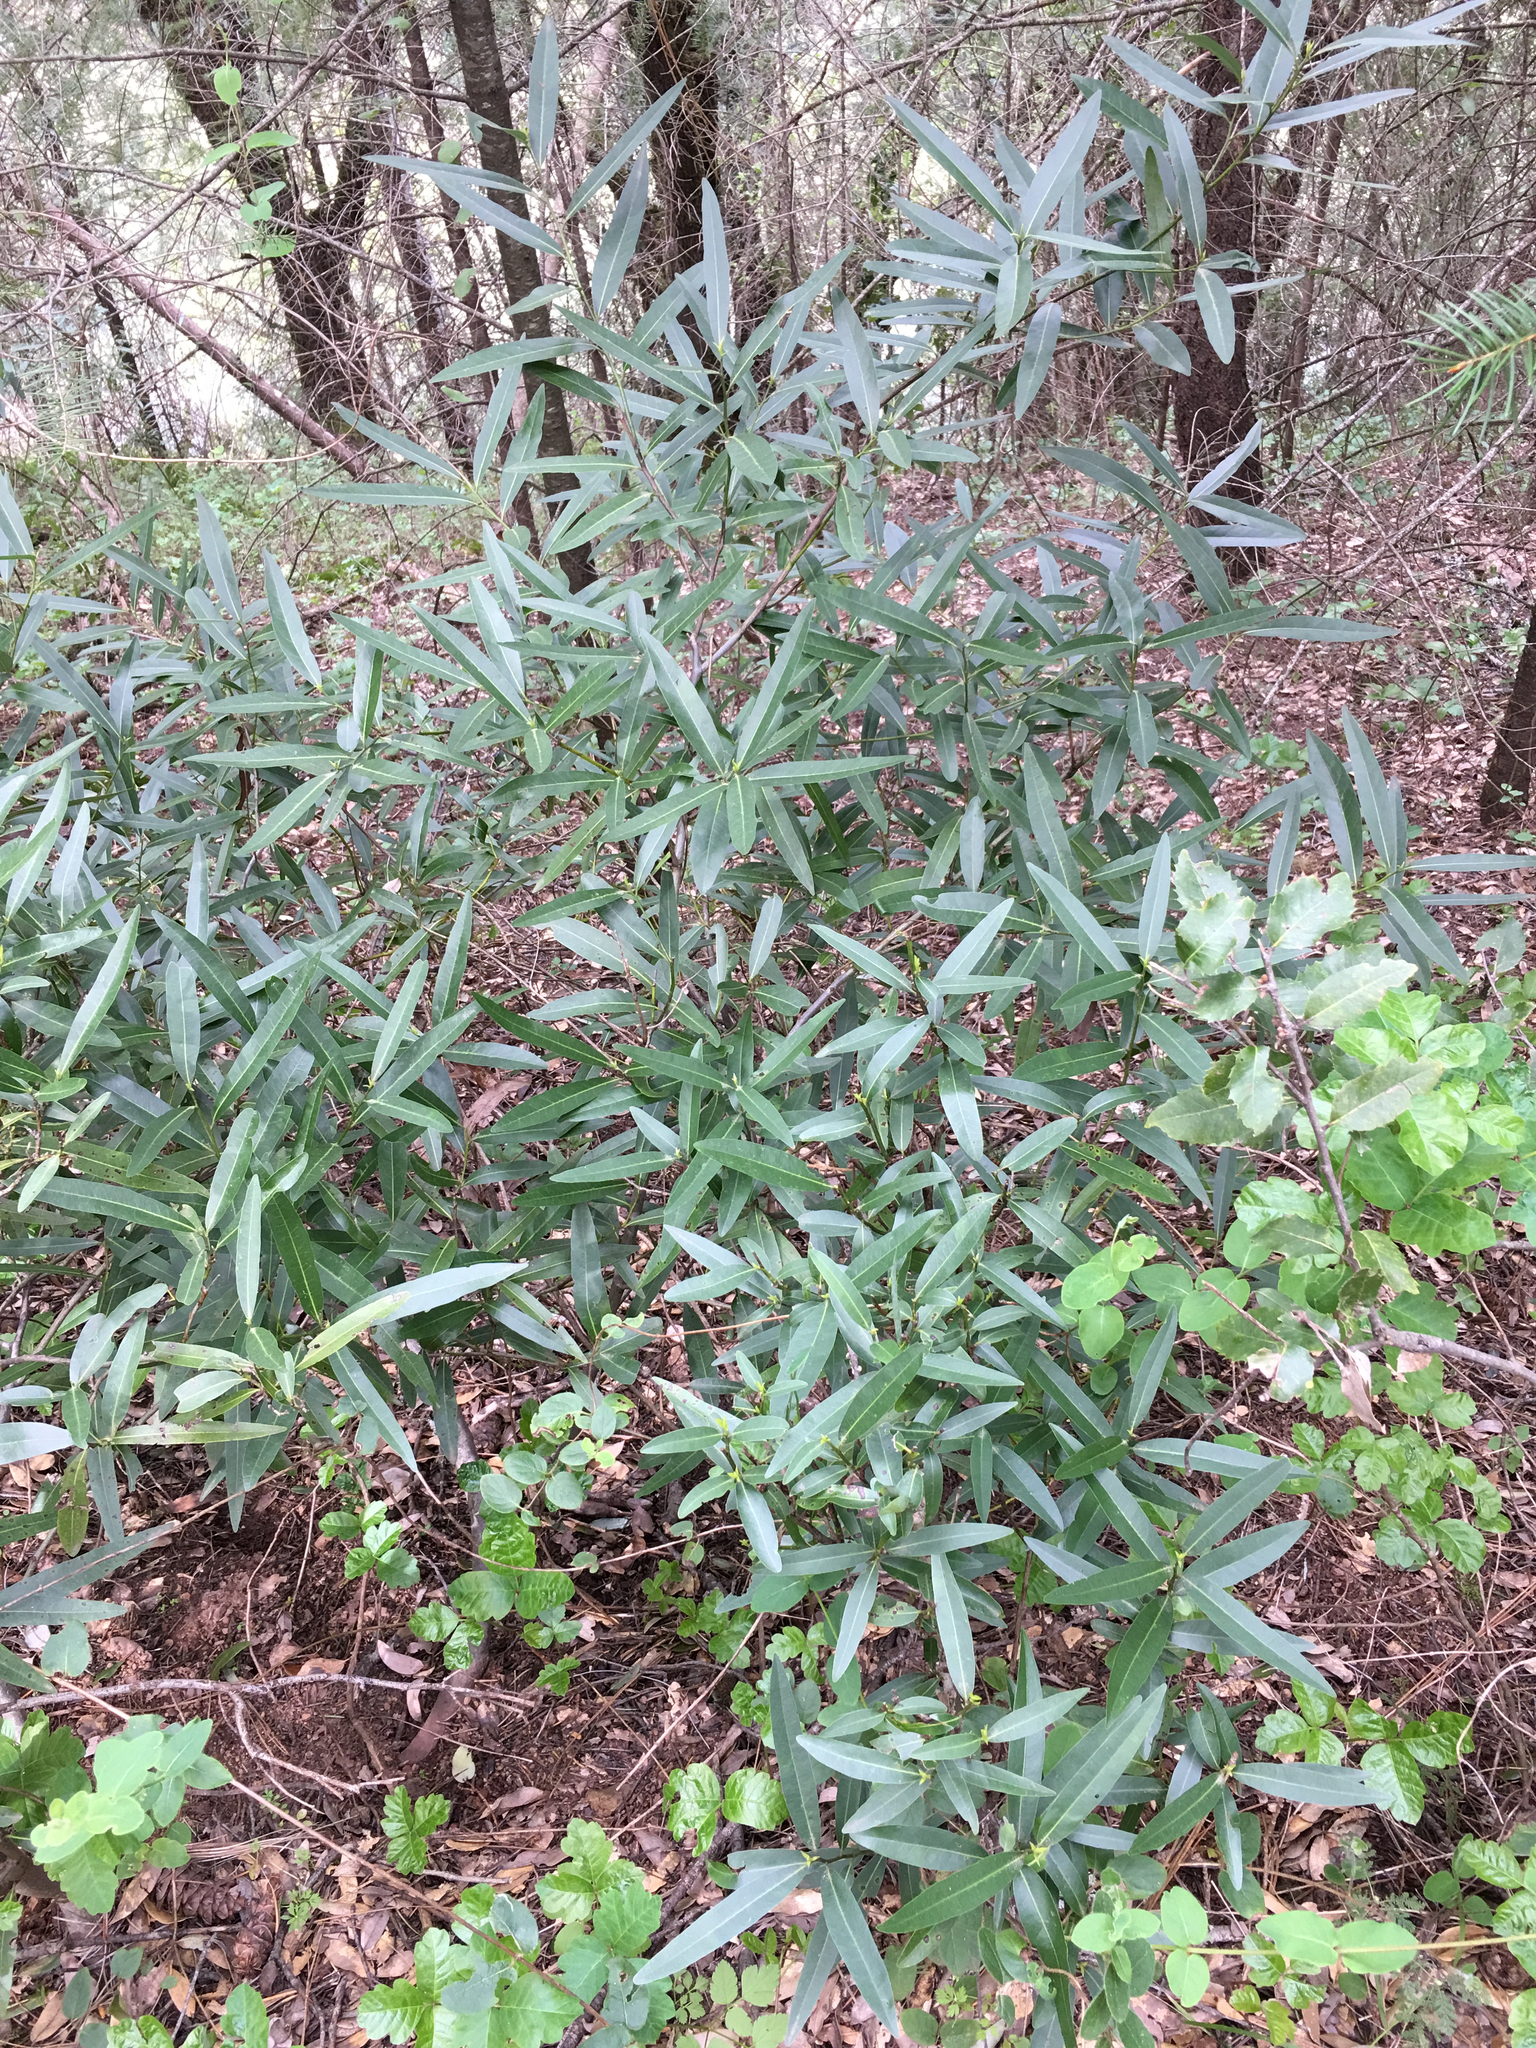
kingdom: Plantae
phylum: Tracheophyta
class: Magnoliopsida
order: Laurales
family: Lauraceae
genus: Umbellularia
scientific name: Umbellularia californica
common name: California bay
